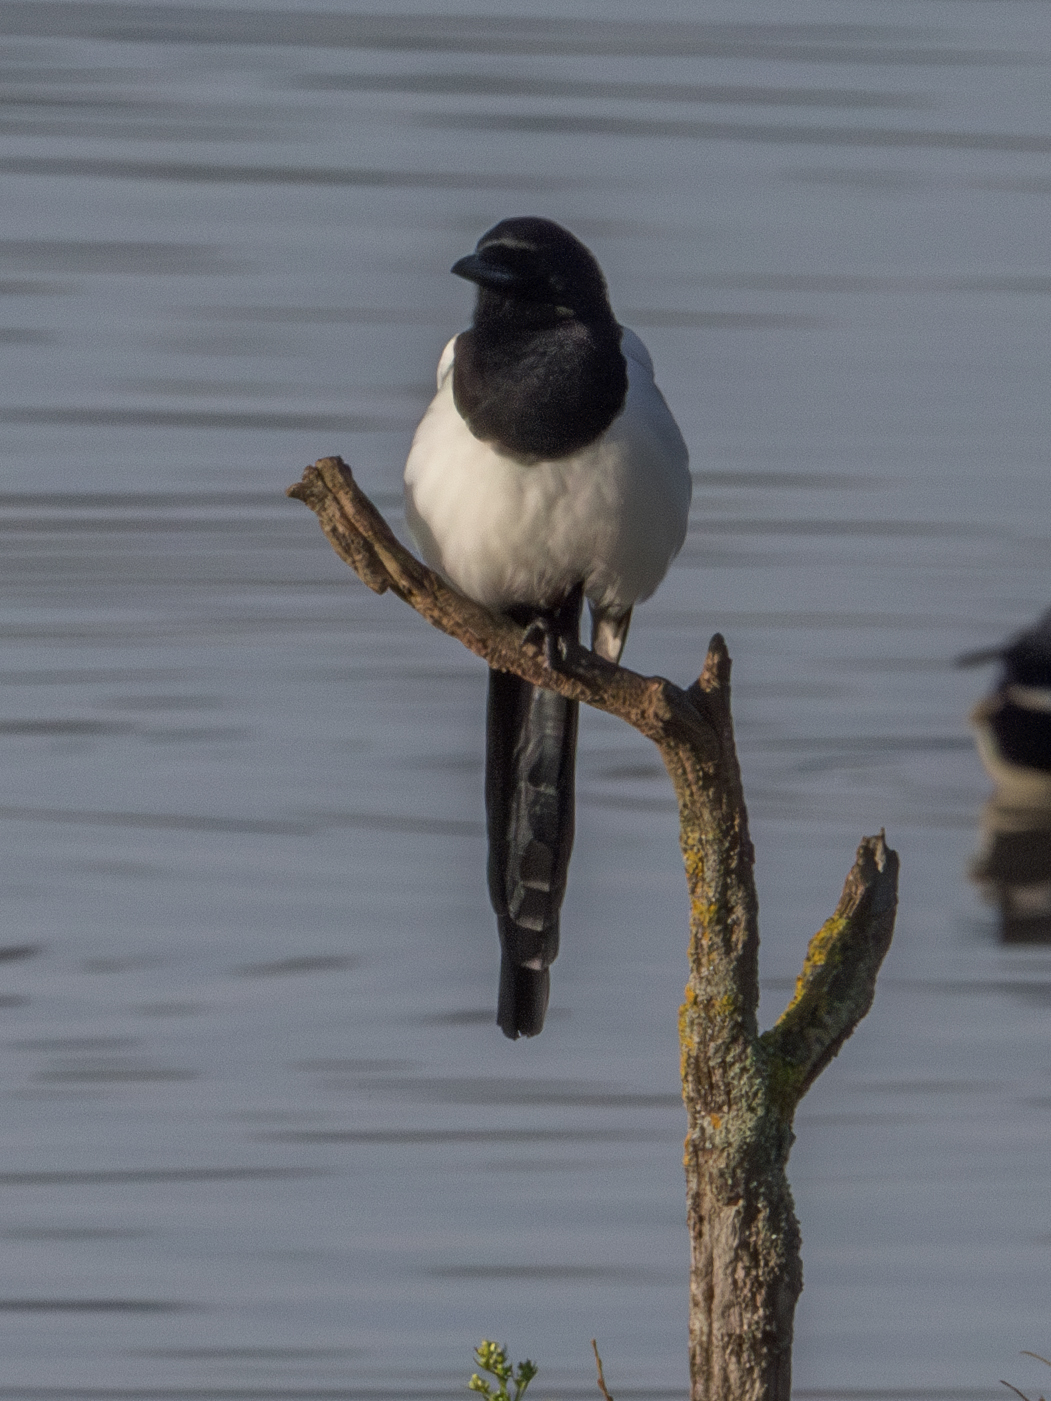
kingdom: Animalia
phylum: Chordata
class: Aves
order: Passeriformes
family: Corvidae
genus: Pica
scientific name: Pica pica
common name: Eurasian magpie
